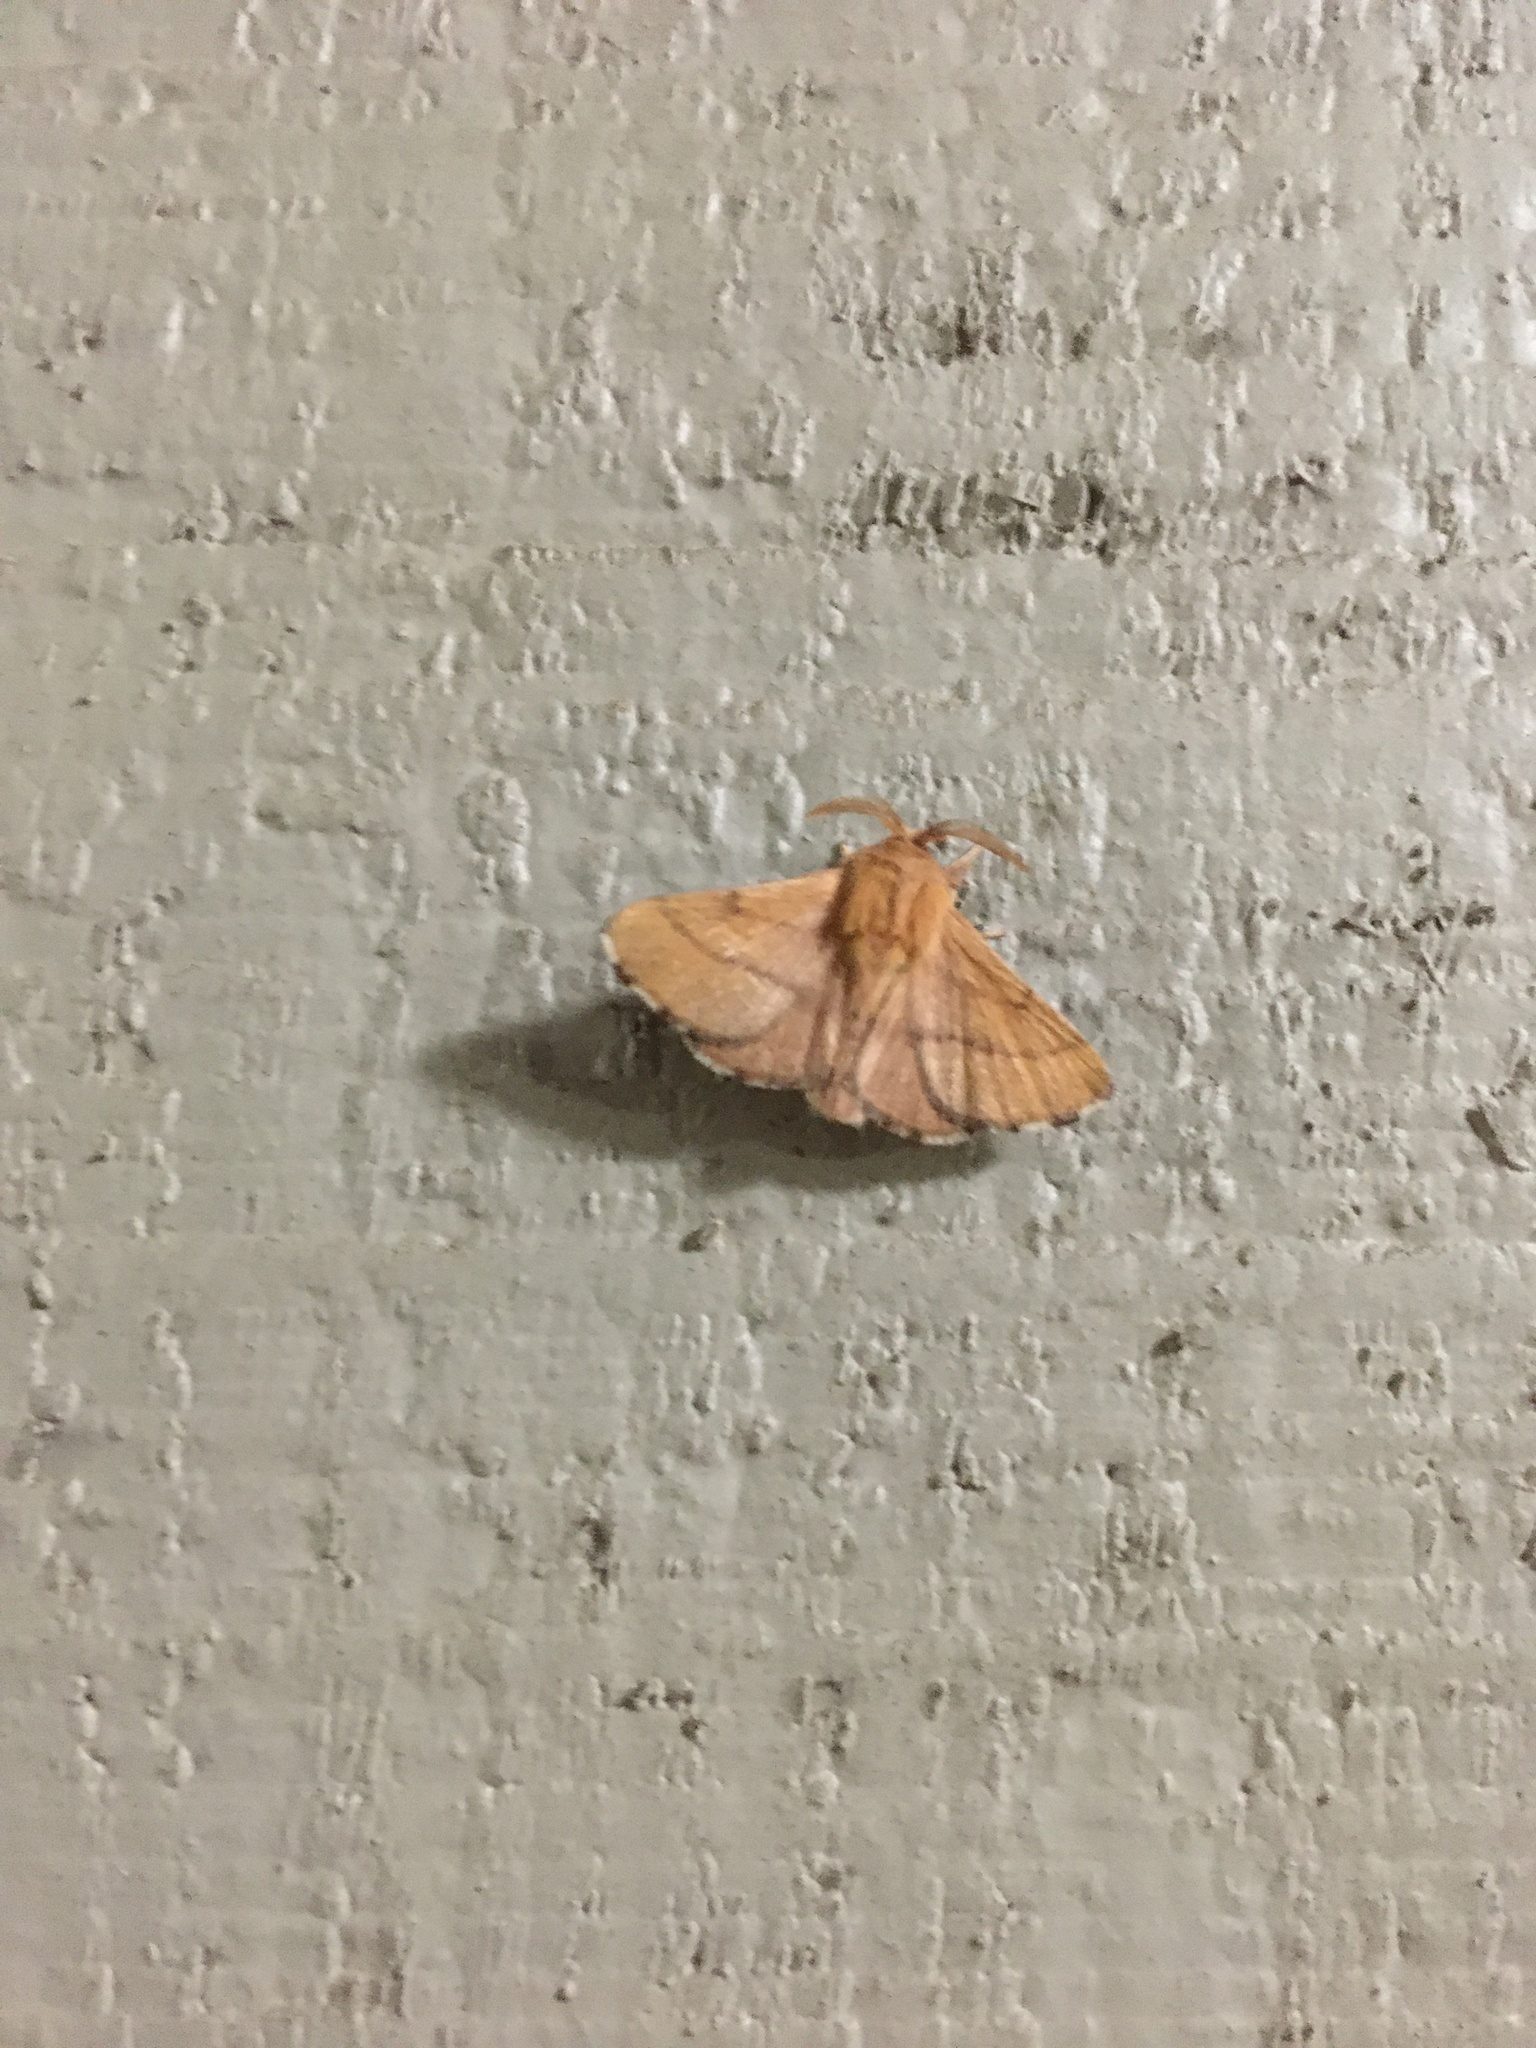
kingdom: Animalia
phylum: Arthropoda
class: Insecta
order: Lepidoptera
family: Lasiocampidae
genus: Malacosoma
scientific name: Malacosoma disstria
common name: Forest tent caterpillar
